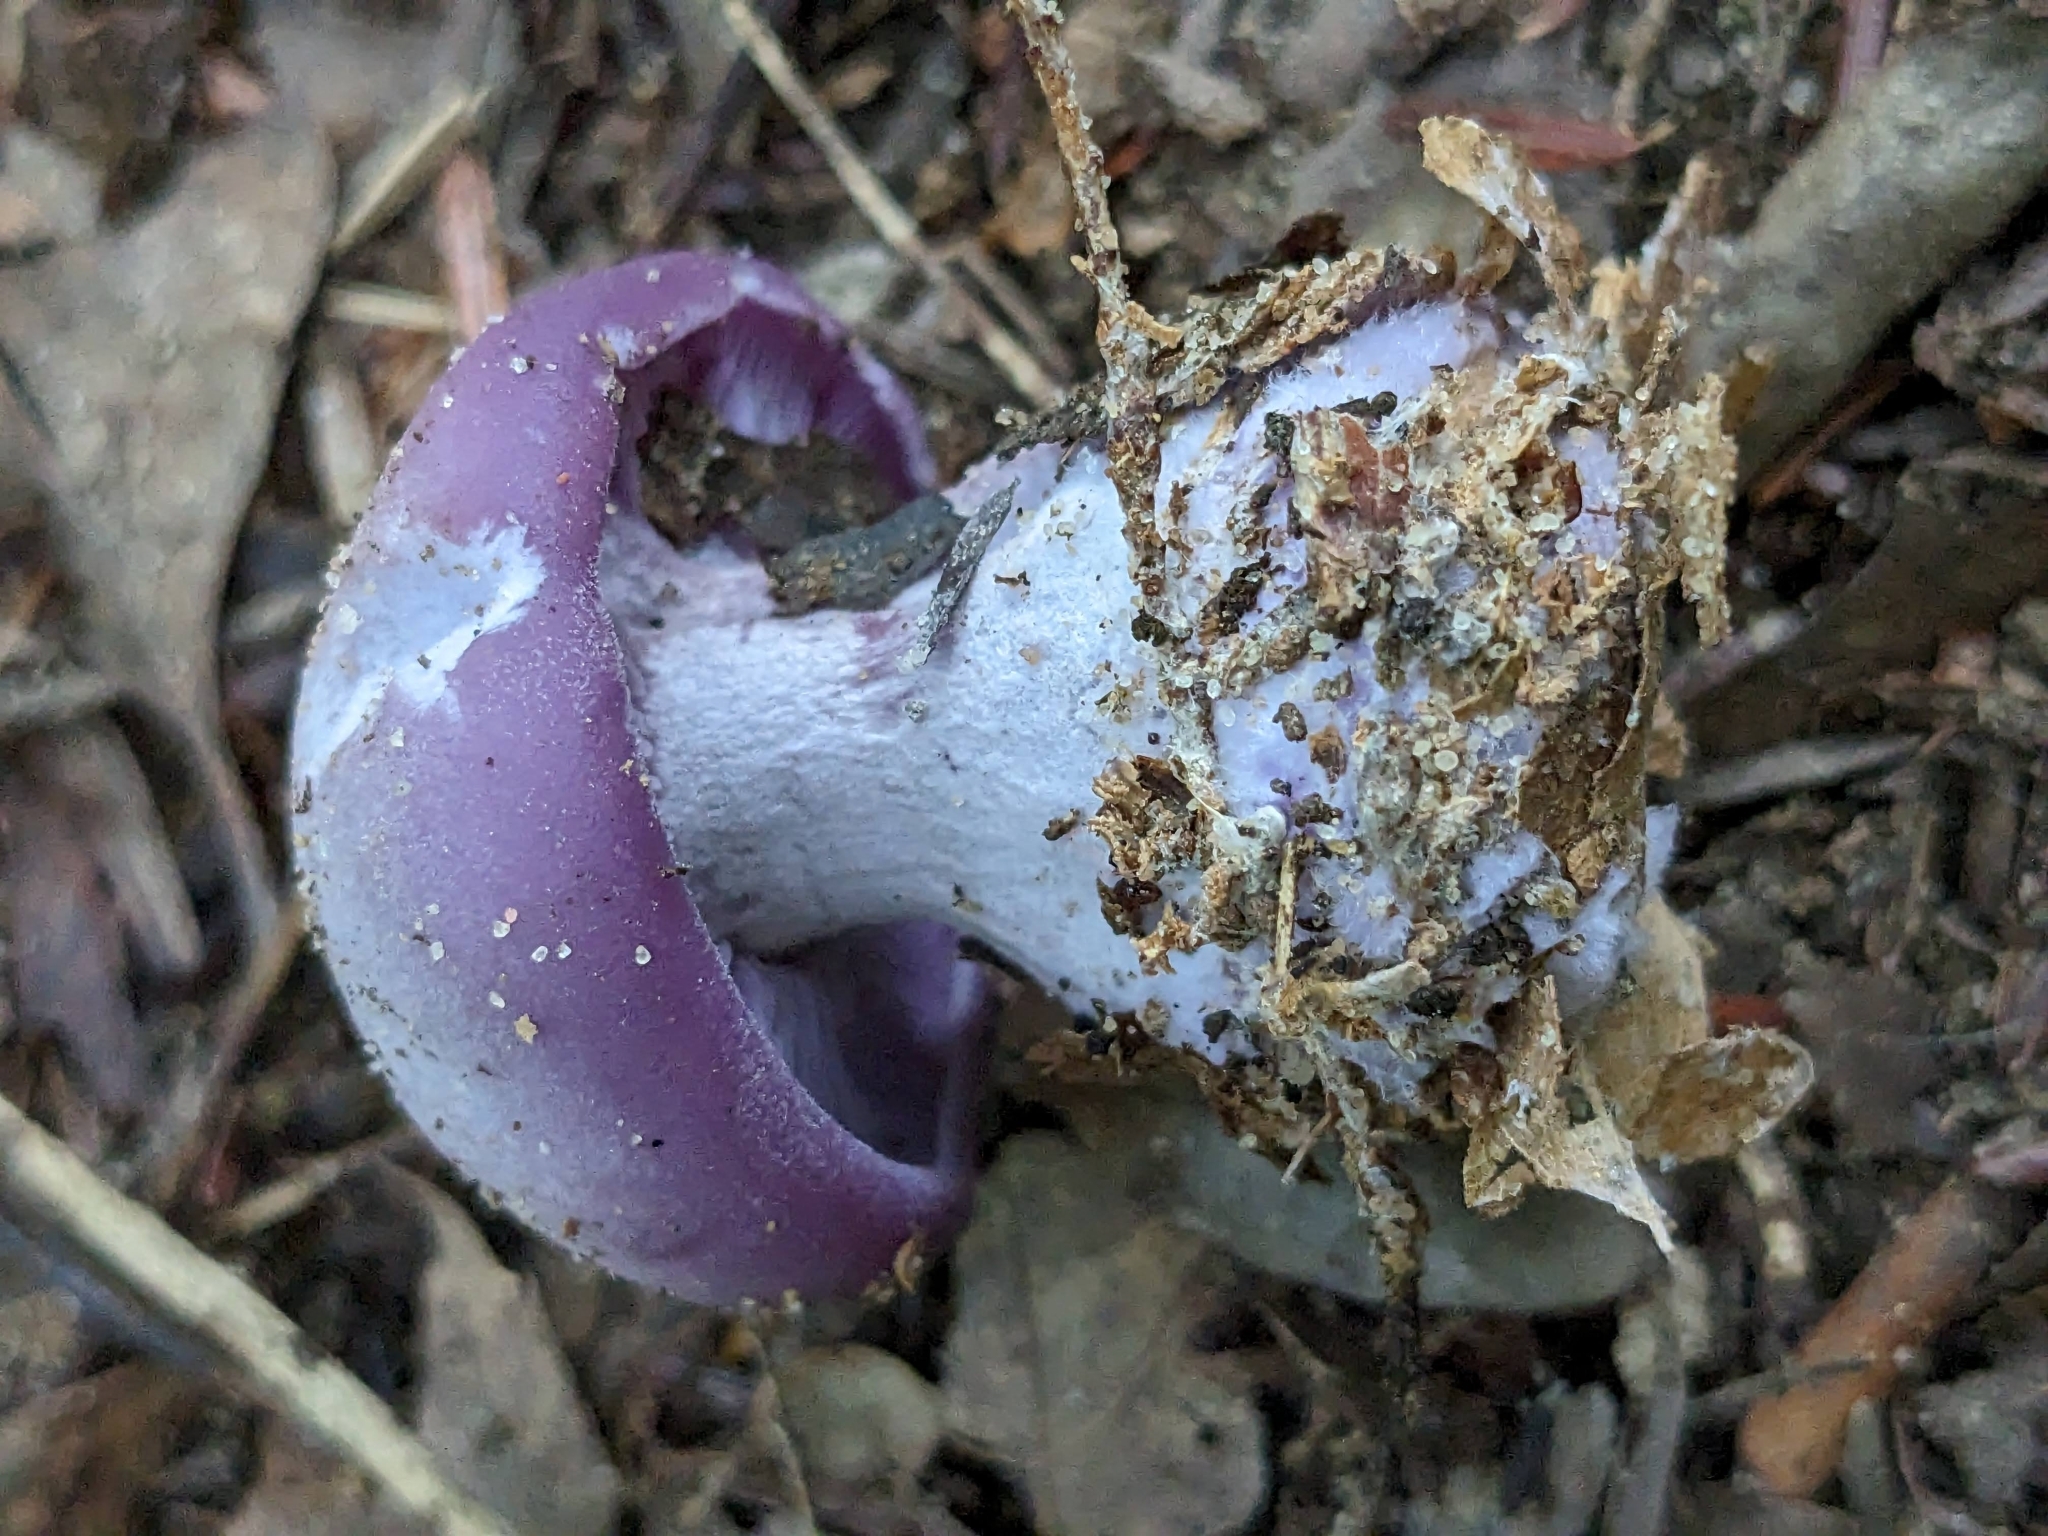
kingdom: Fungi
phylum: Basidiomycota
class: Agaricomycetes
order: Agaricales
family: Tricholomataceae
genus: Collybia
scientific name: Collybia
